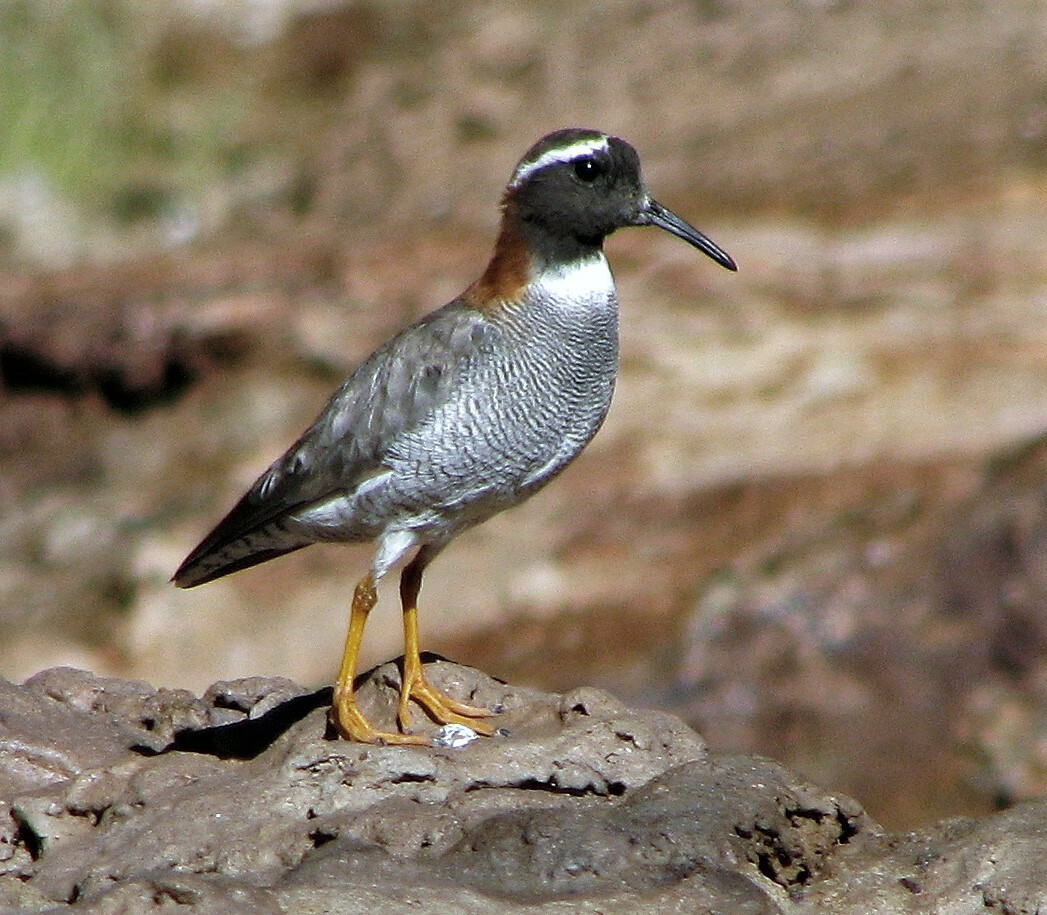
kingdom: Animalia
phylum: Chordata
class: Aves
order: Charadriiformes
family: Charadriidae
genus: Phegornis
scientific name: Phegornis mitchellii
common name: Diademed sandpiper-plover
